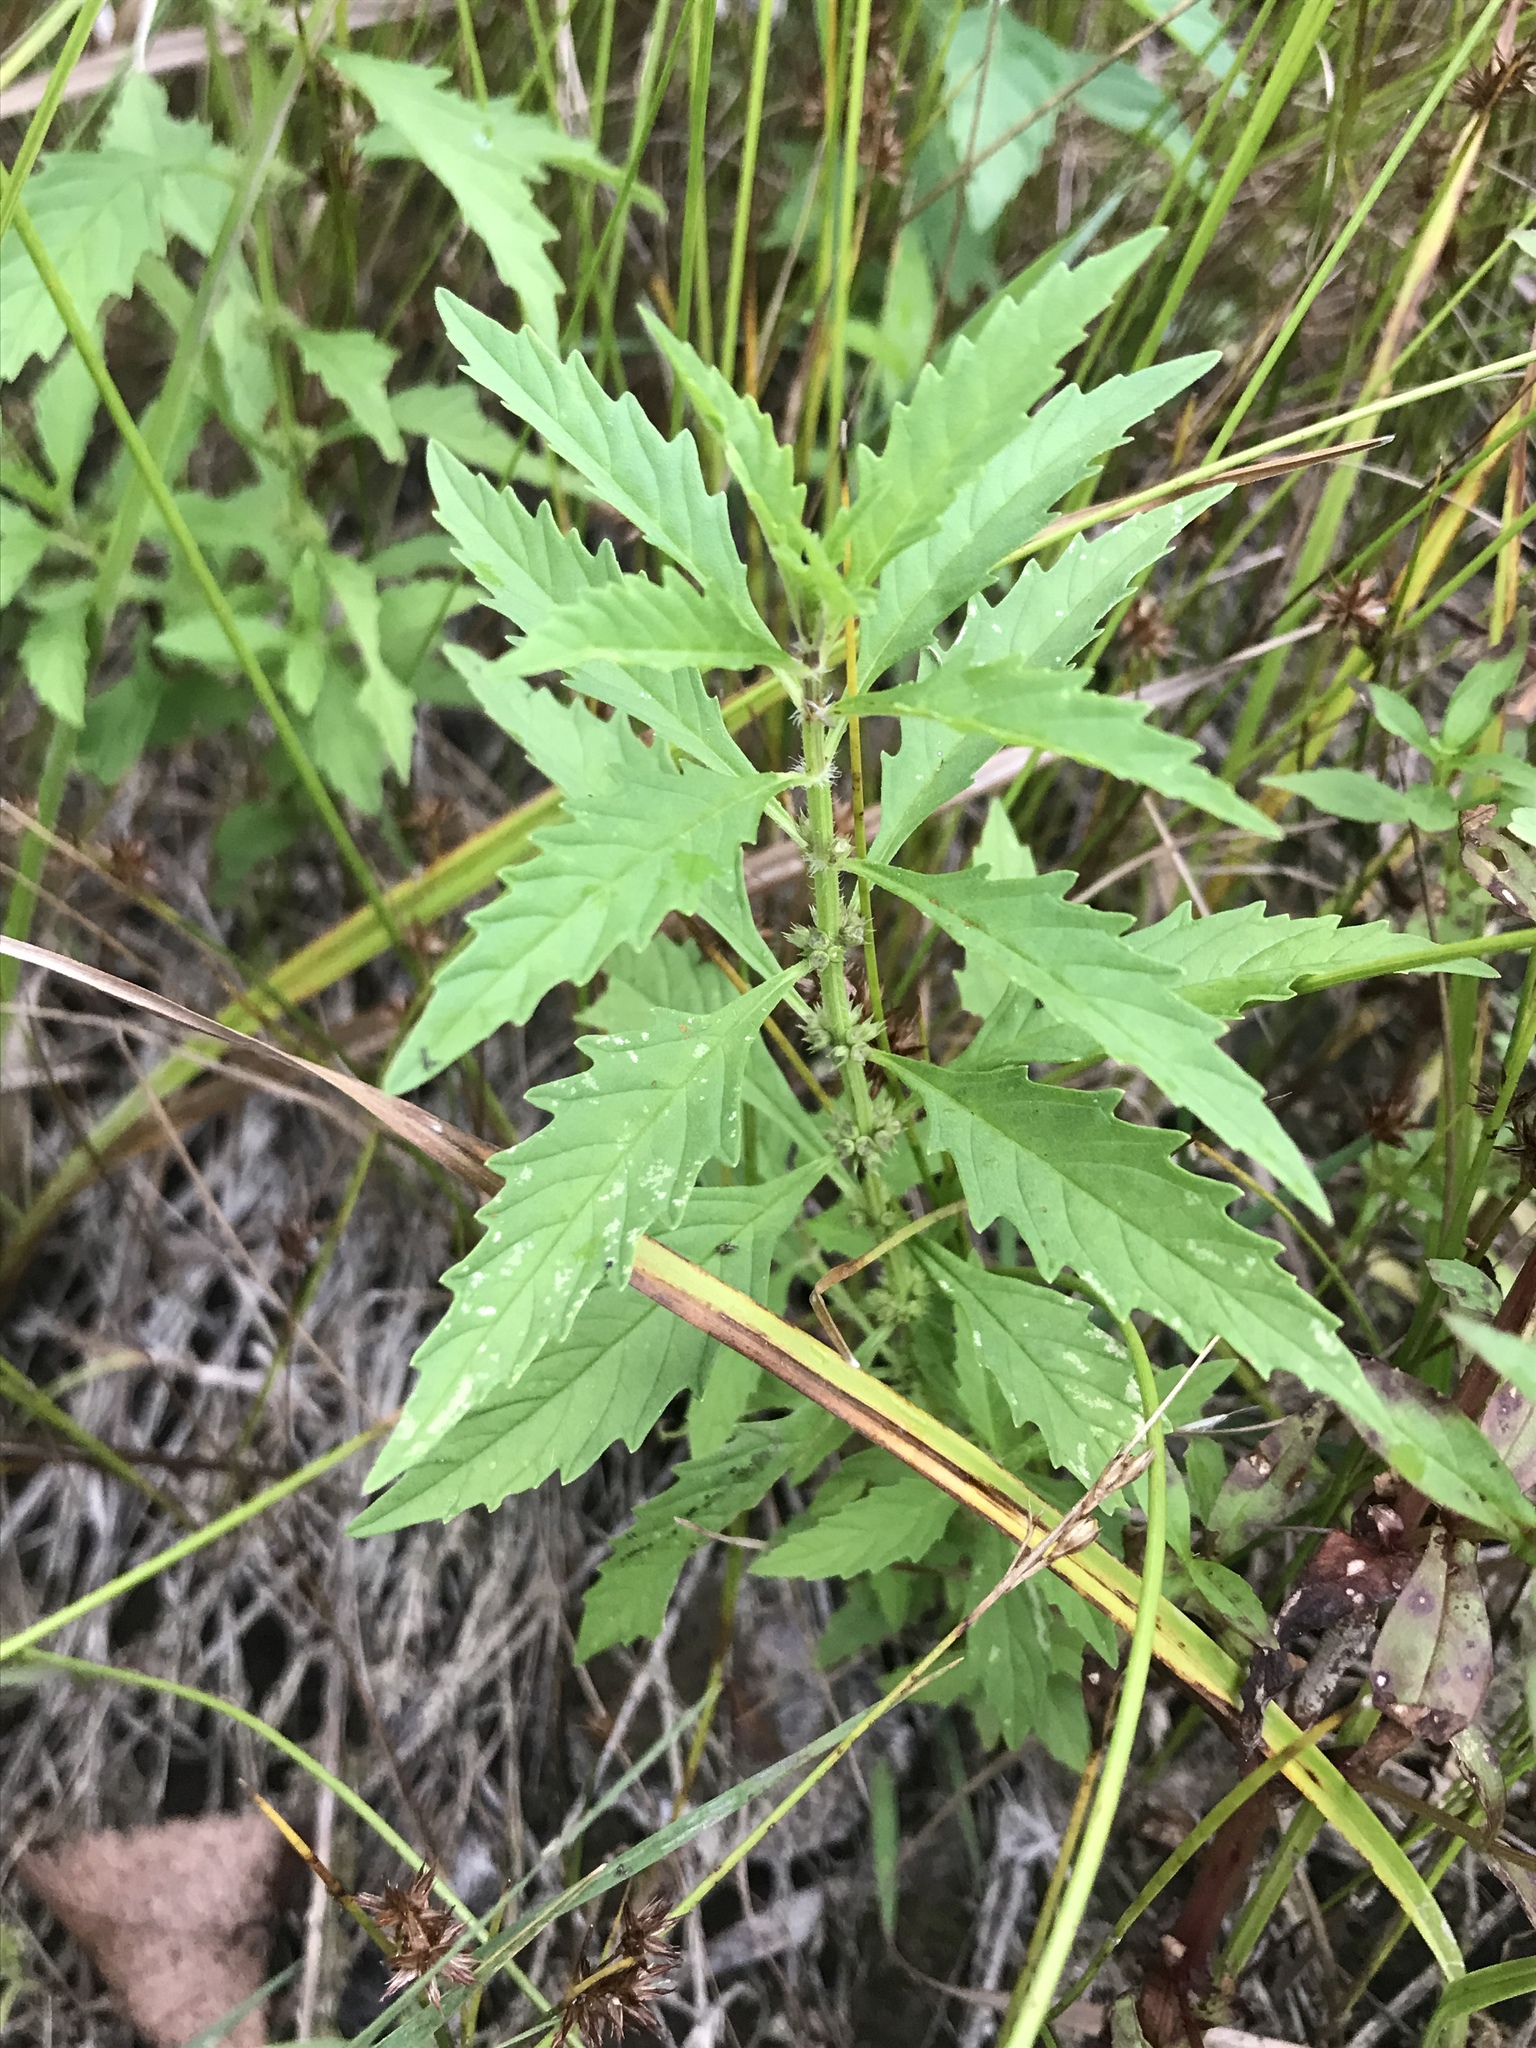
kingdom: Plantae
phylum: Tracheophyta
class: Magnoliopsida
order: Lamiales
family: Lamiaceae
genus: Lycopus
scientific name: Lycopus americanus
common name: American bugleweed
